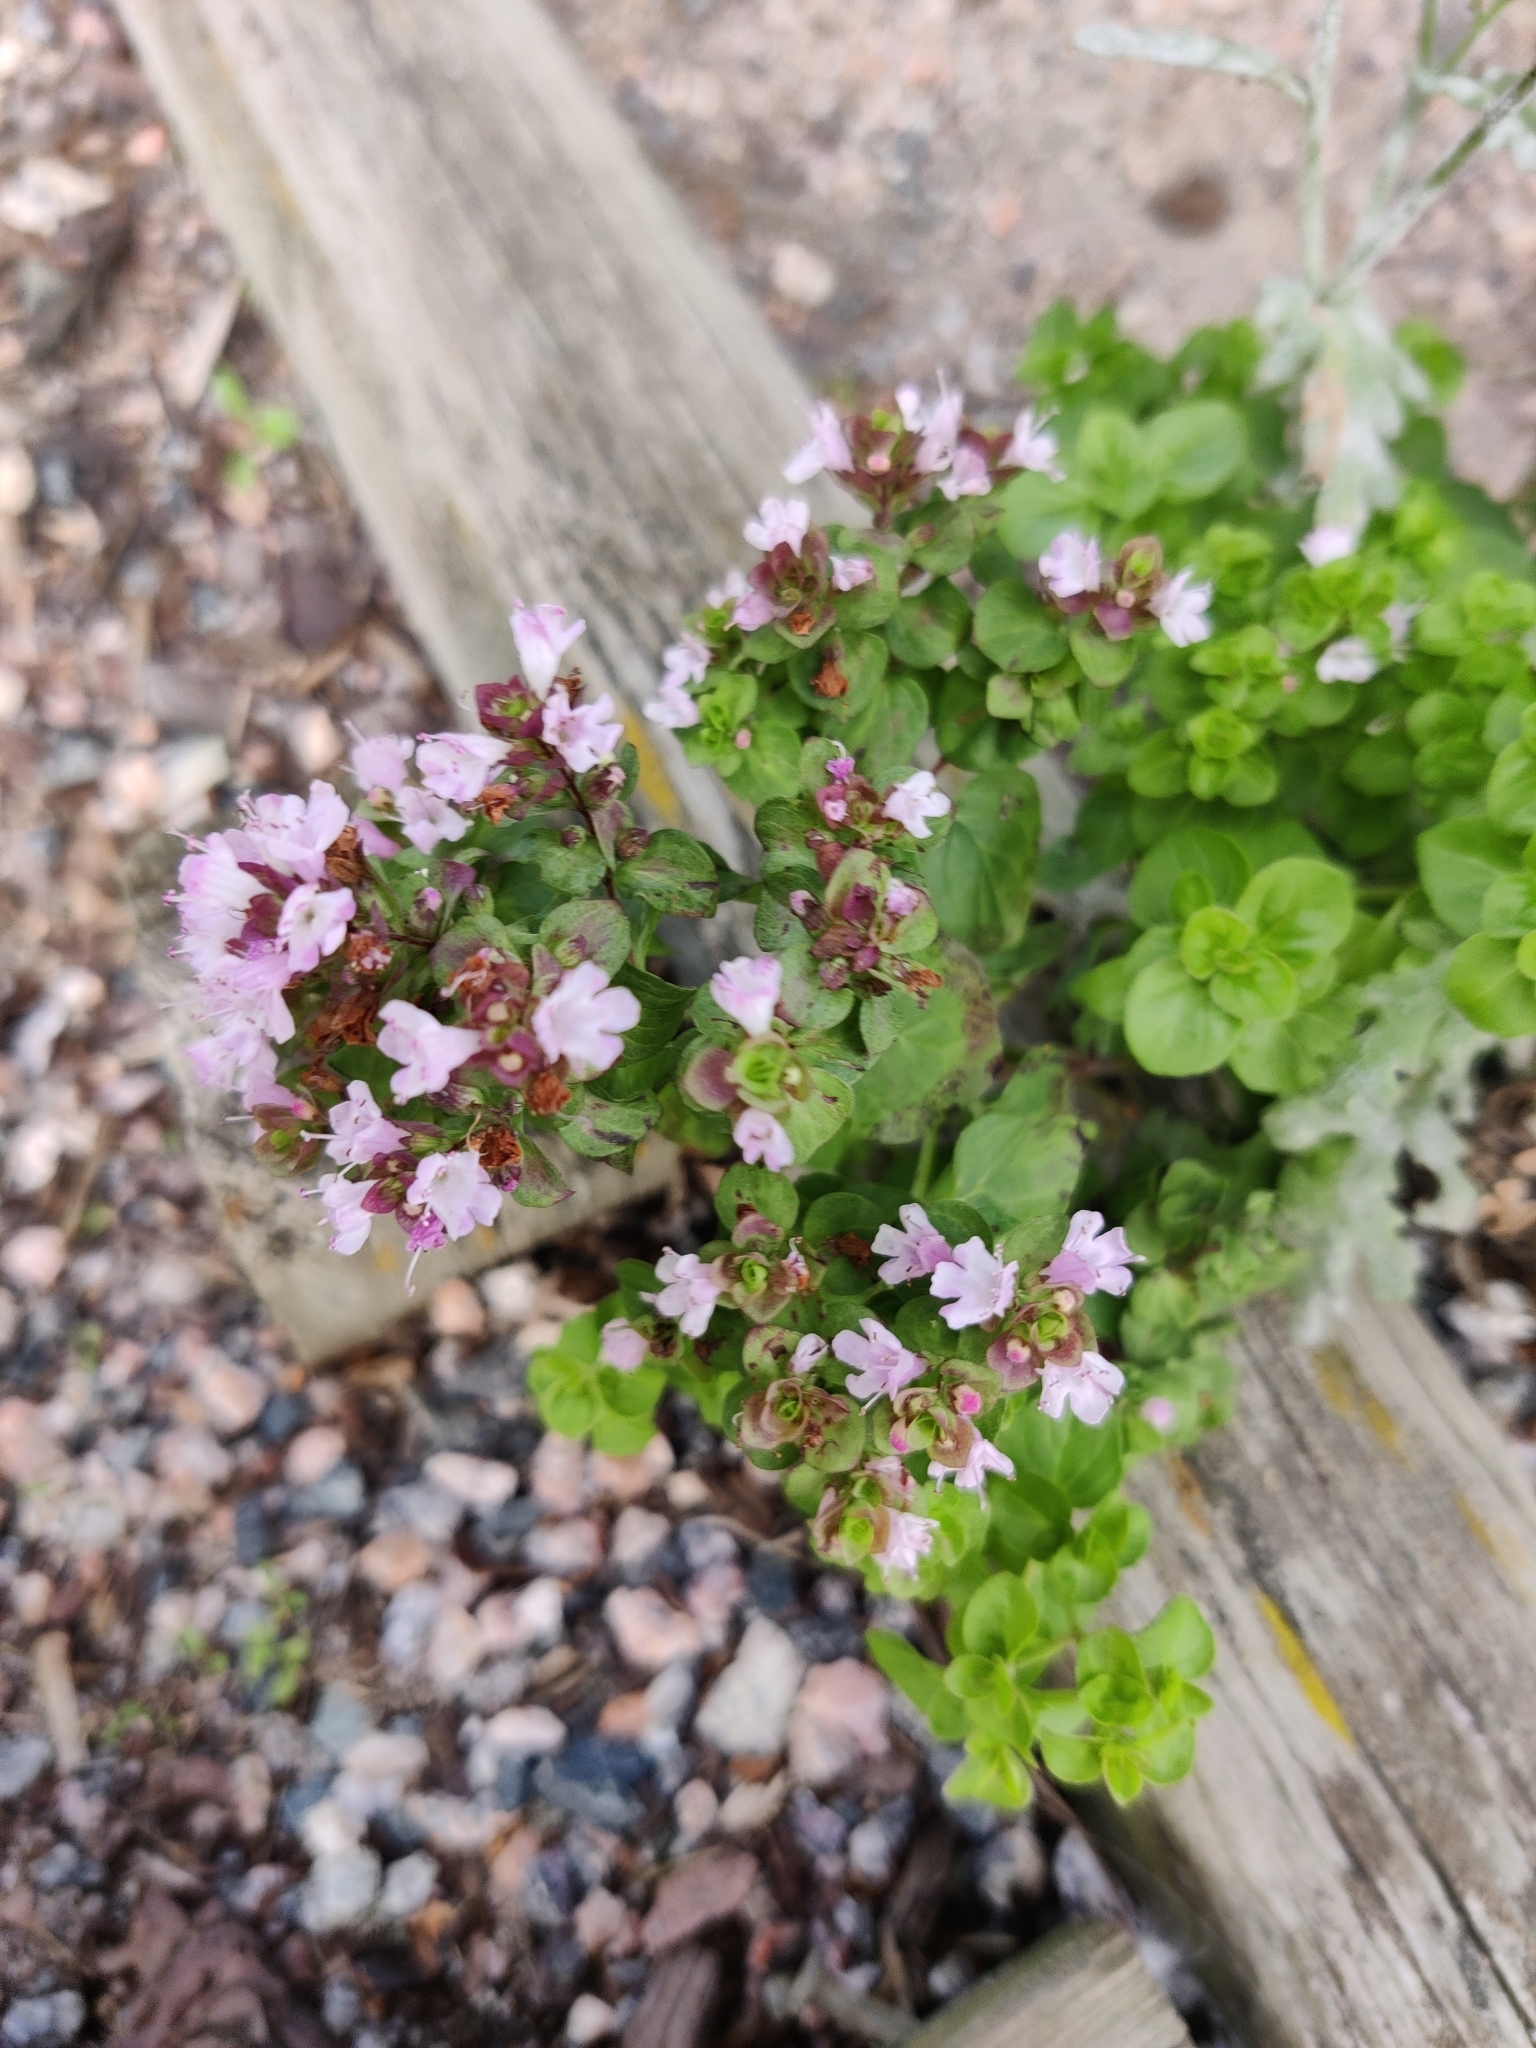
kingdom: Plantae
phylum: Tracheophyta
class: Magnoliopsida
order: Lamiales
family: Lamiaceae
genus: Origanum
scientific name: Origanum vulgare
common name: Wild marjoram
